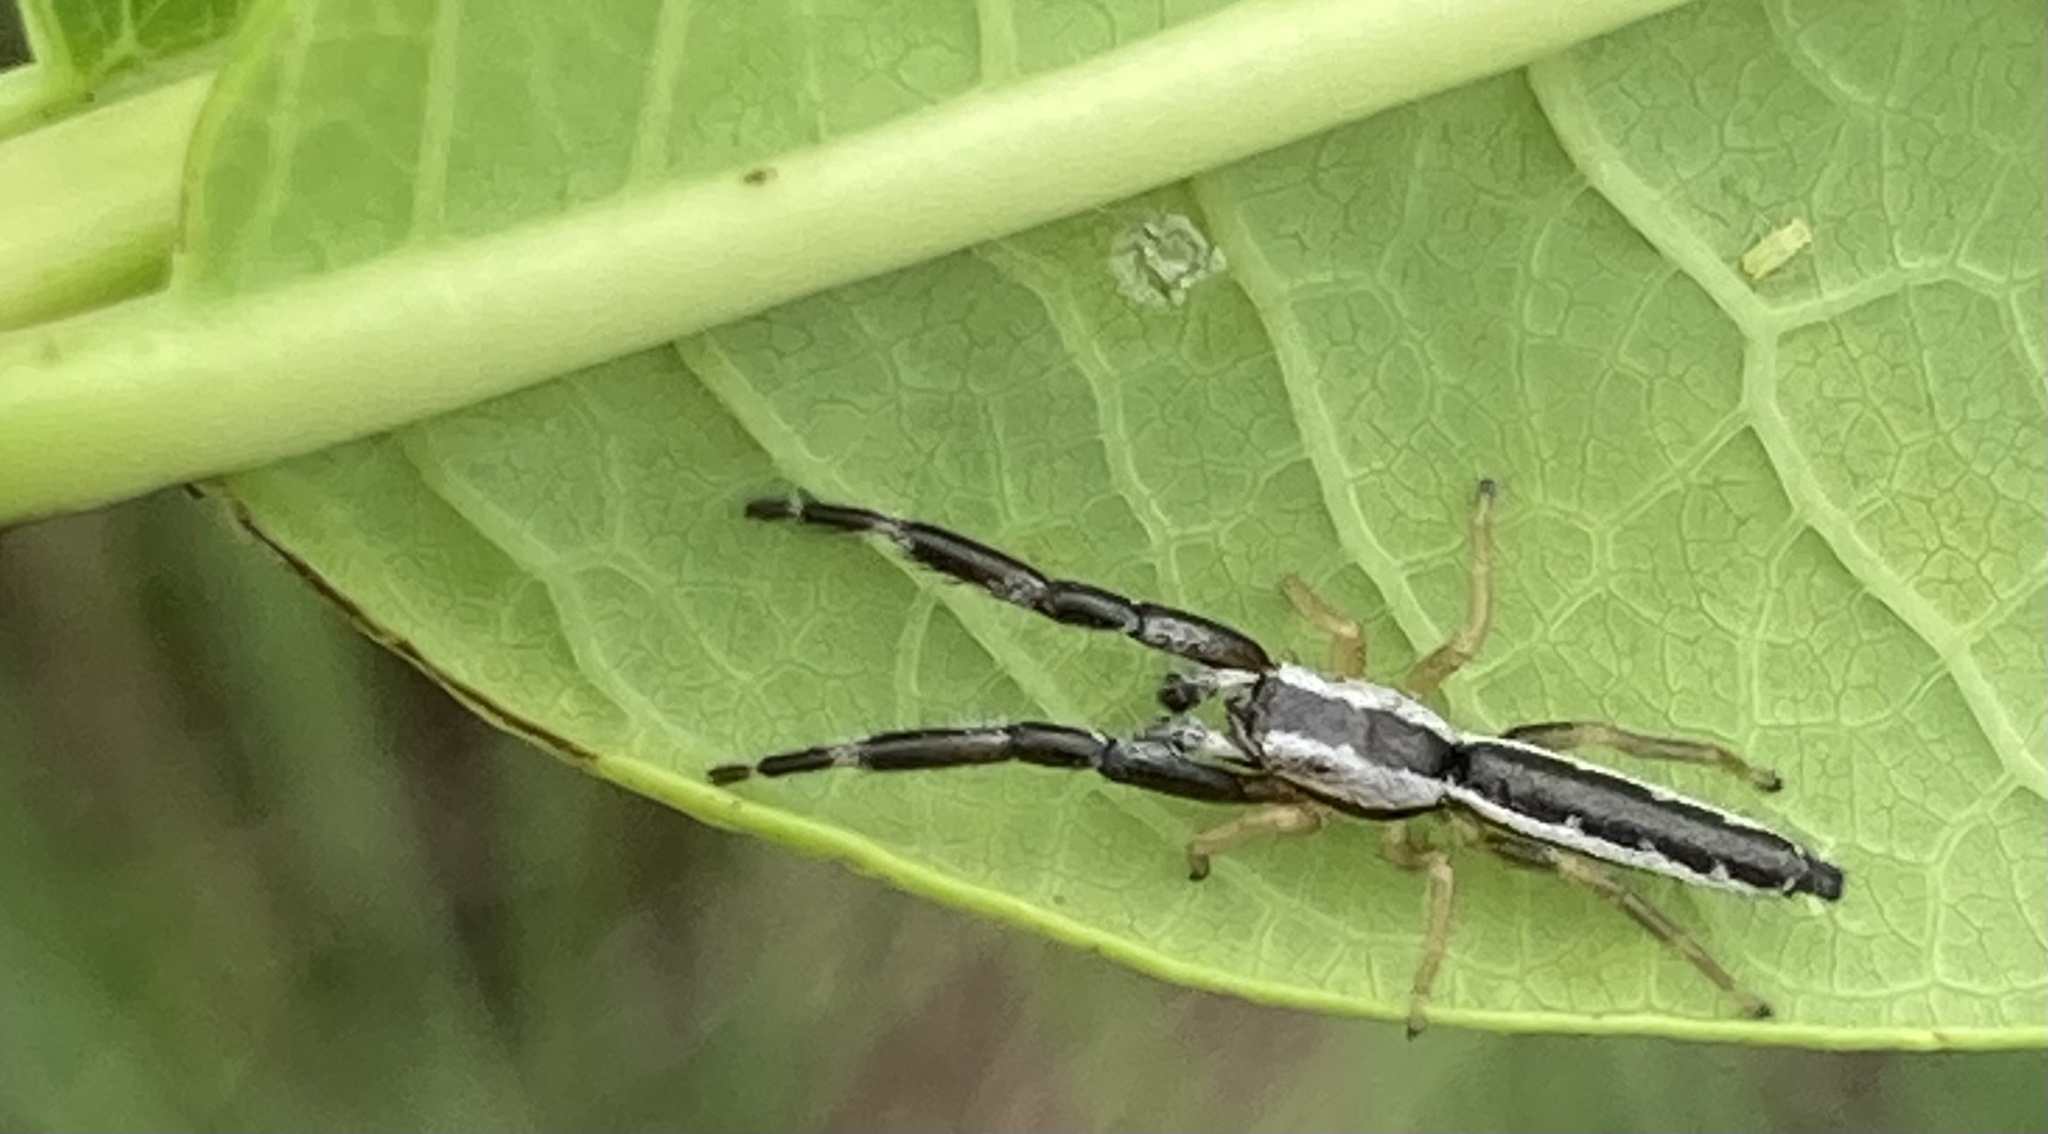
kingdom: Animalia
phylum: Arthropoda
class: Arachnida
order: Araneae
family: Salticidae
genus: Marpissa
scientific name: Marpissa pikei
